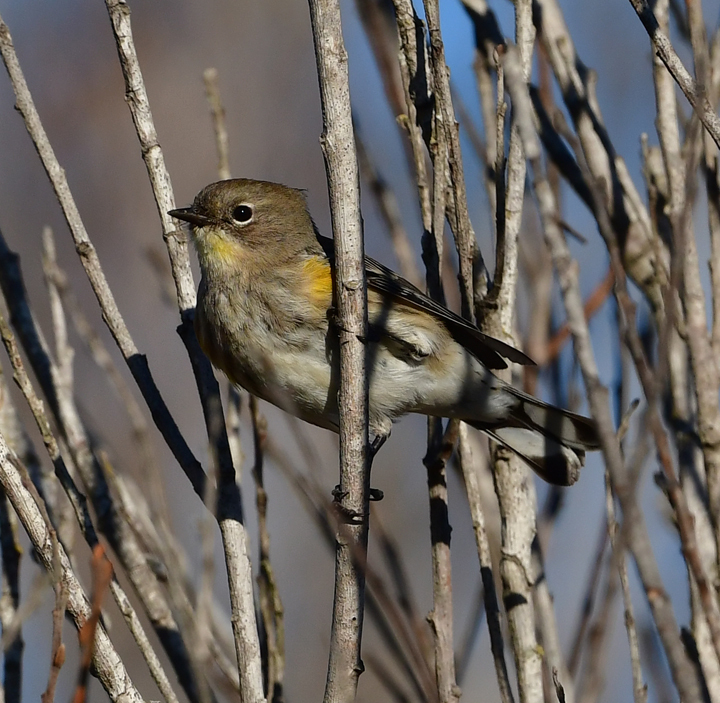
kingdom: Animalia
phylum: Chordata
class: Aves
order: Passeriformes
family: Parulidae
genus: Setophaga
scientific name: Setophaga coronata
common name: Myrtle warbler
